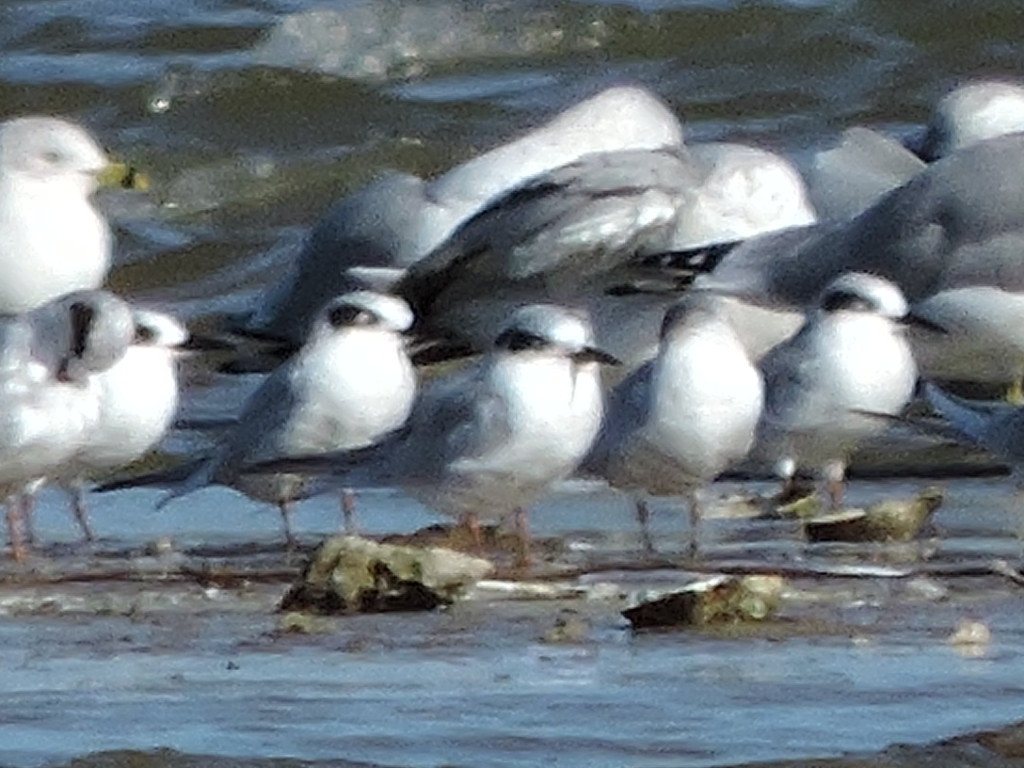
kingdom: Animalia
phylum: Chordata
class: Aves
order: Charadriiformes
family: Laridae
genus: Sterna
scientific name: Sterna forsteri
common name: Forster's tern
